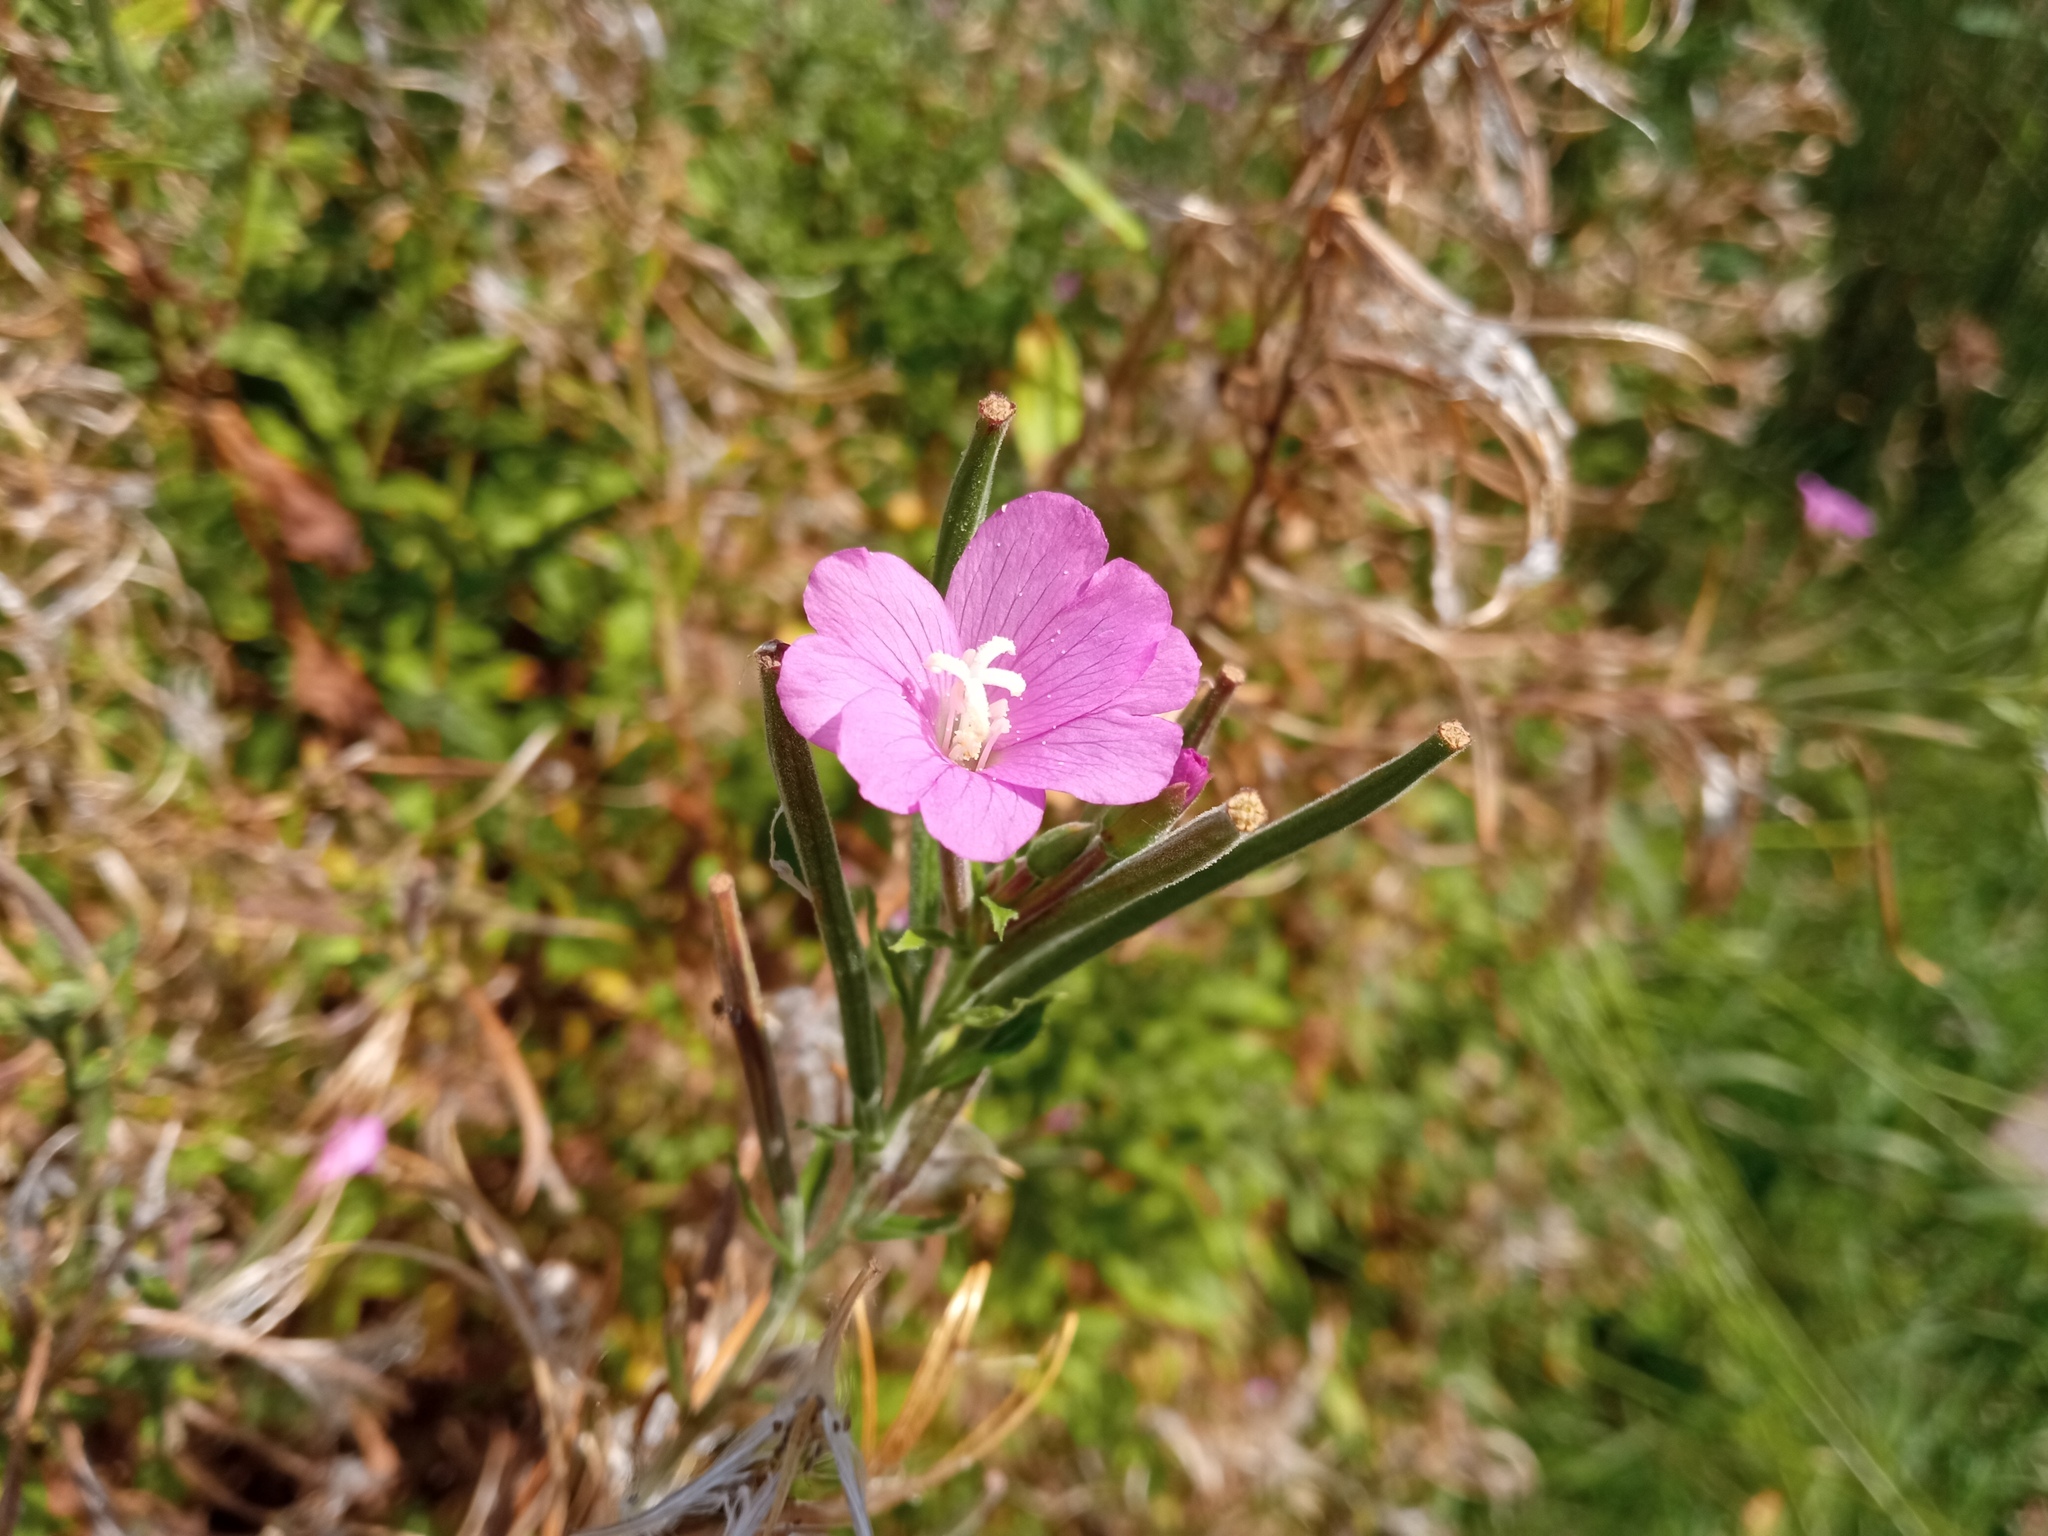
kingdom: Plantae
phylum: Tracheophyta
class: Magnoliopsida
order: Myrtales
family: Onagraceae
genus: Epilobium
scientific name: Epilobium hirsutum
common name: Great willowherb
